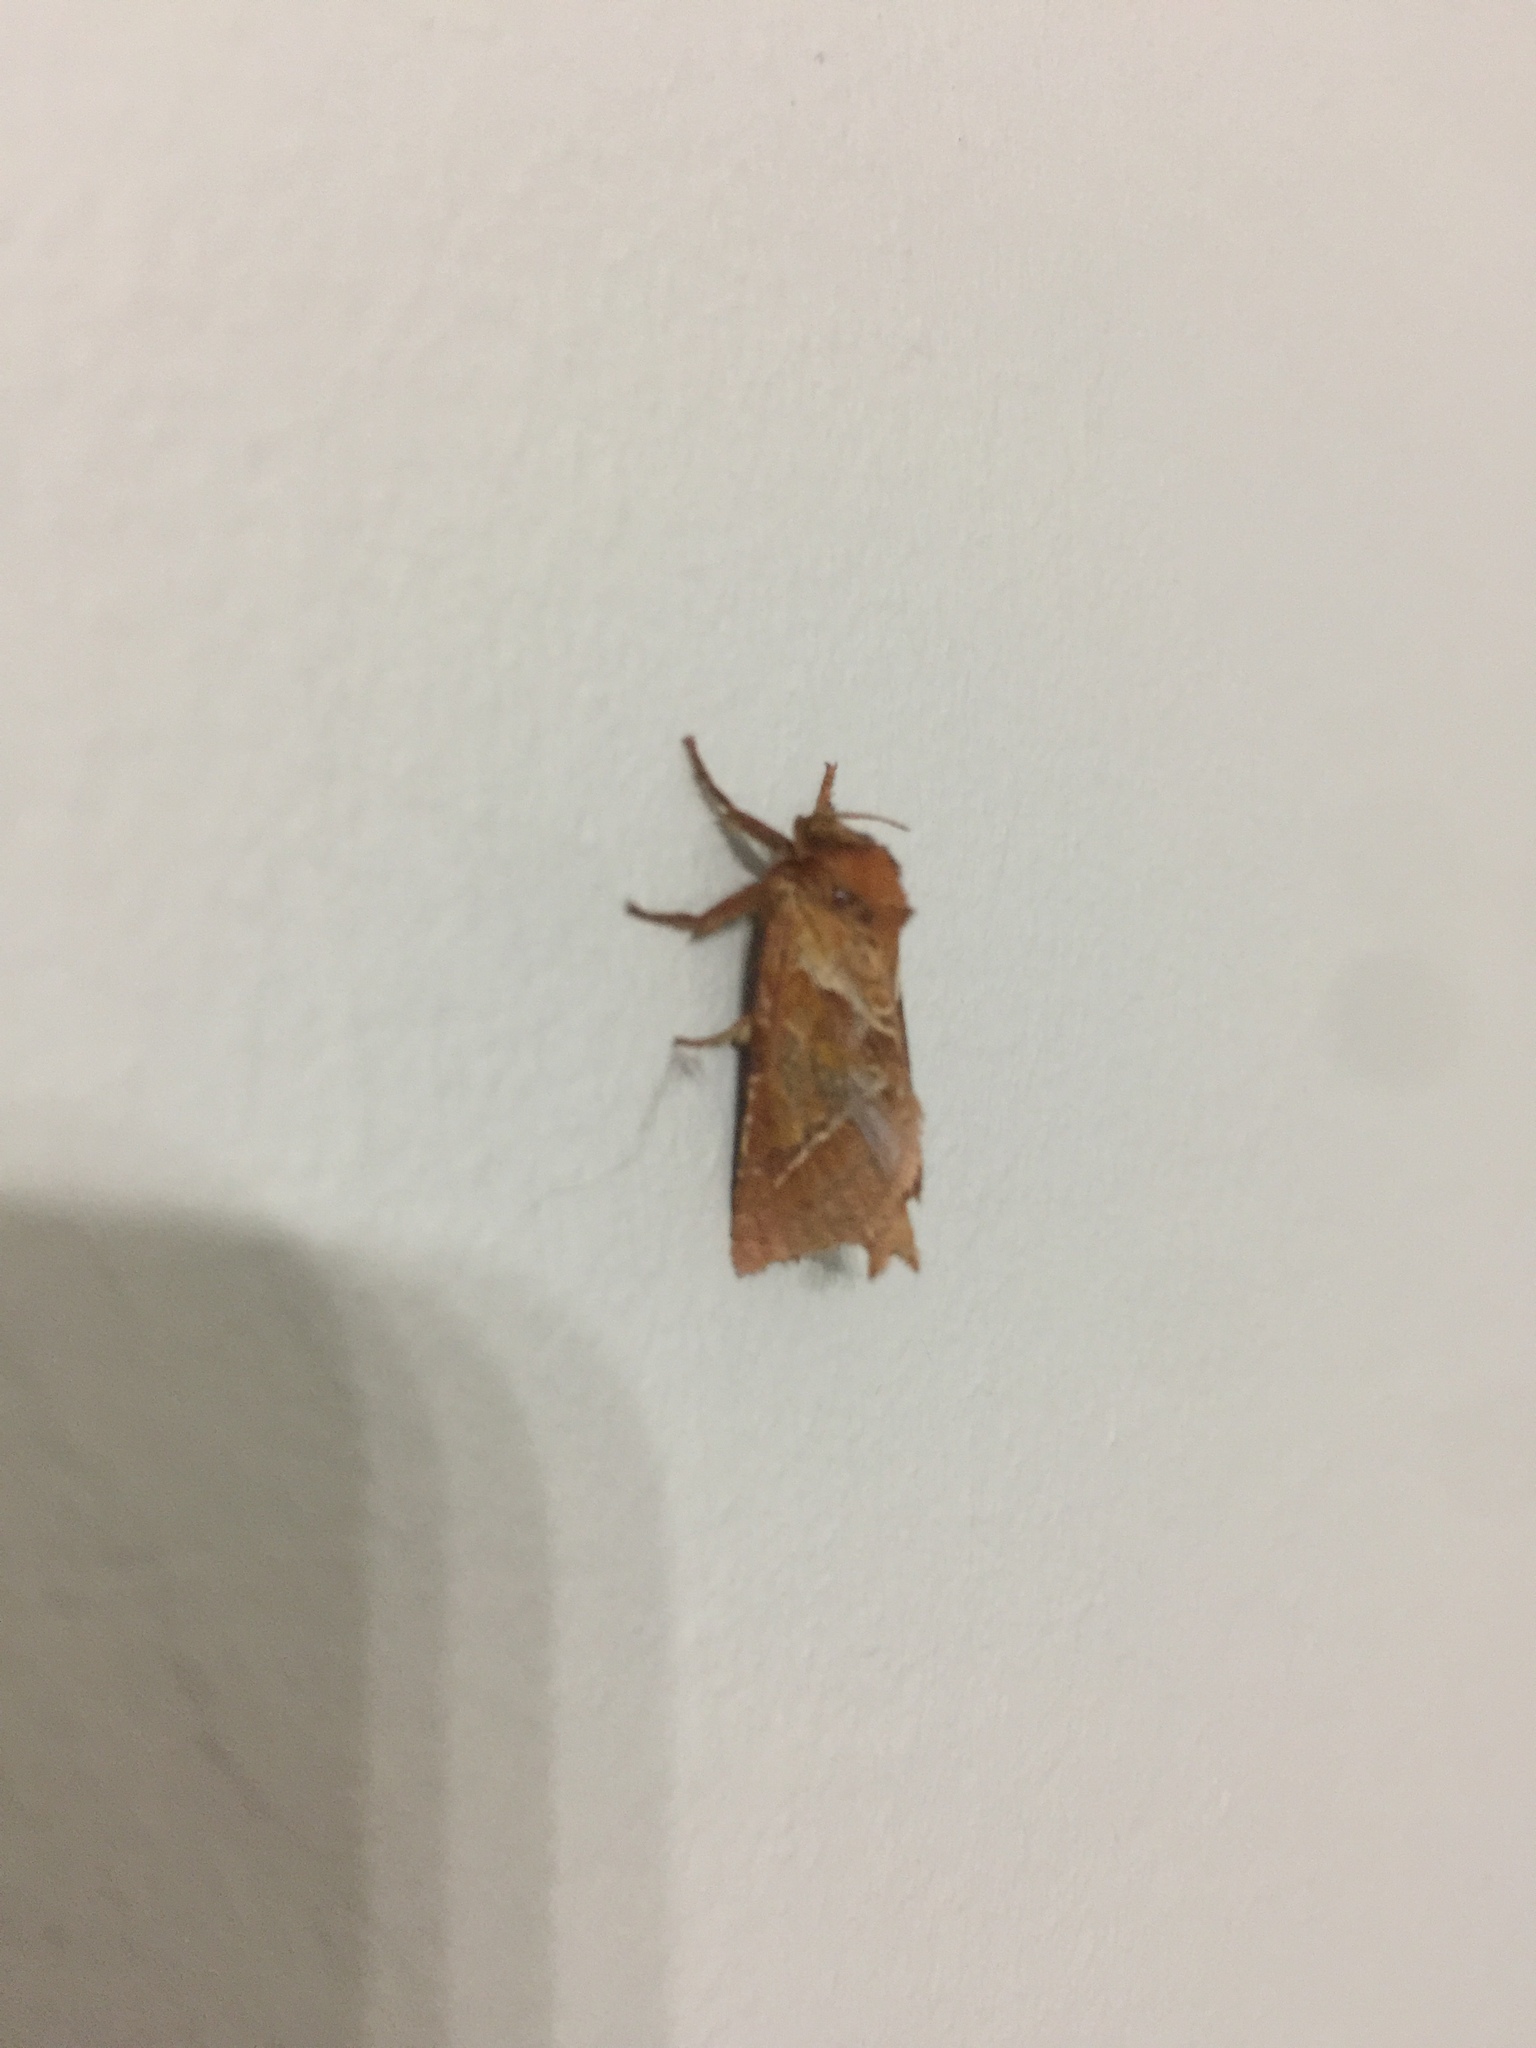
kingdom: Animalia
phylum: Arthropoda
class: Insecta
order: Lepidoptera
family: Hepialidae
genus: Triodia
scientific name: Triodia sylvina
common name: Orange swift
